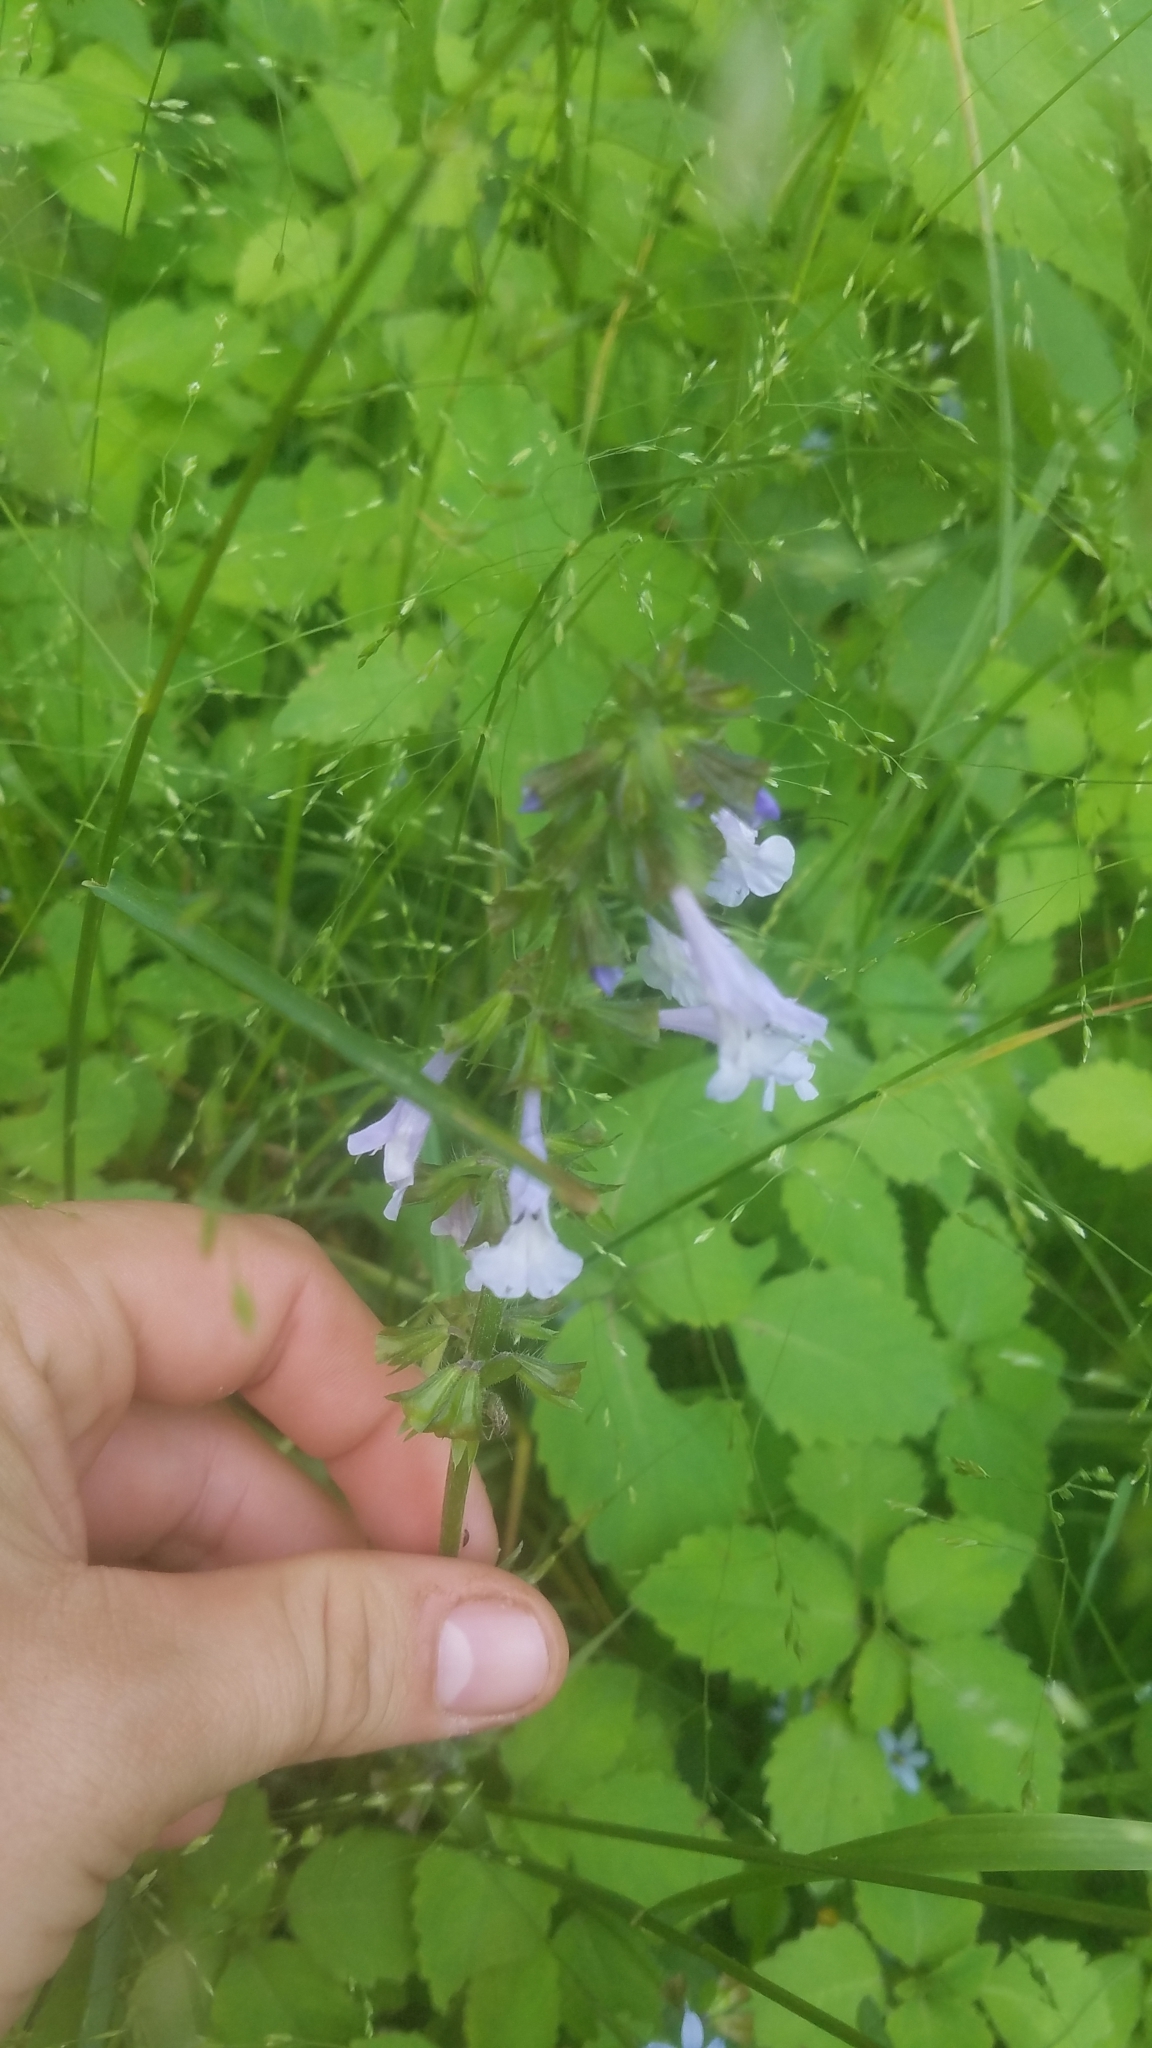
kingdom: Plantae
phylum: Tracheophyta
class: Magnoliopsida
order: Lamiales
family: Lamiaceae
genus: Salvia
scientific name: Salvia lyrata
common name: Cancerweed
